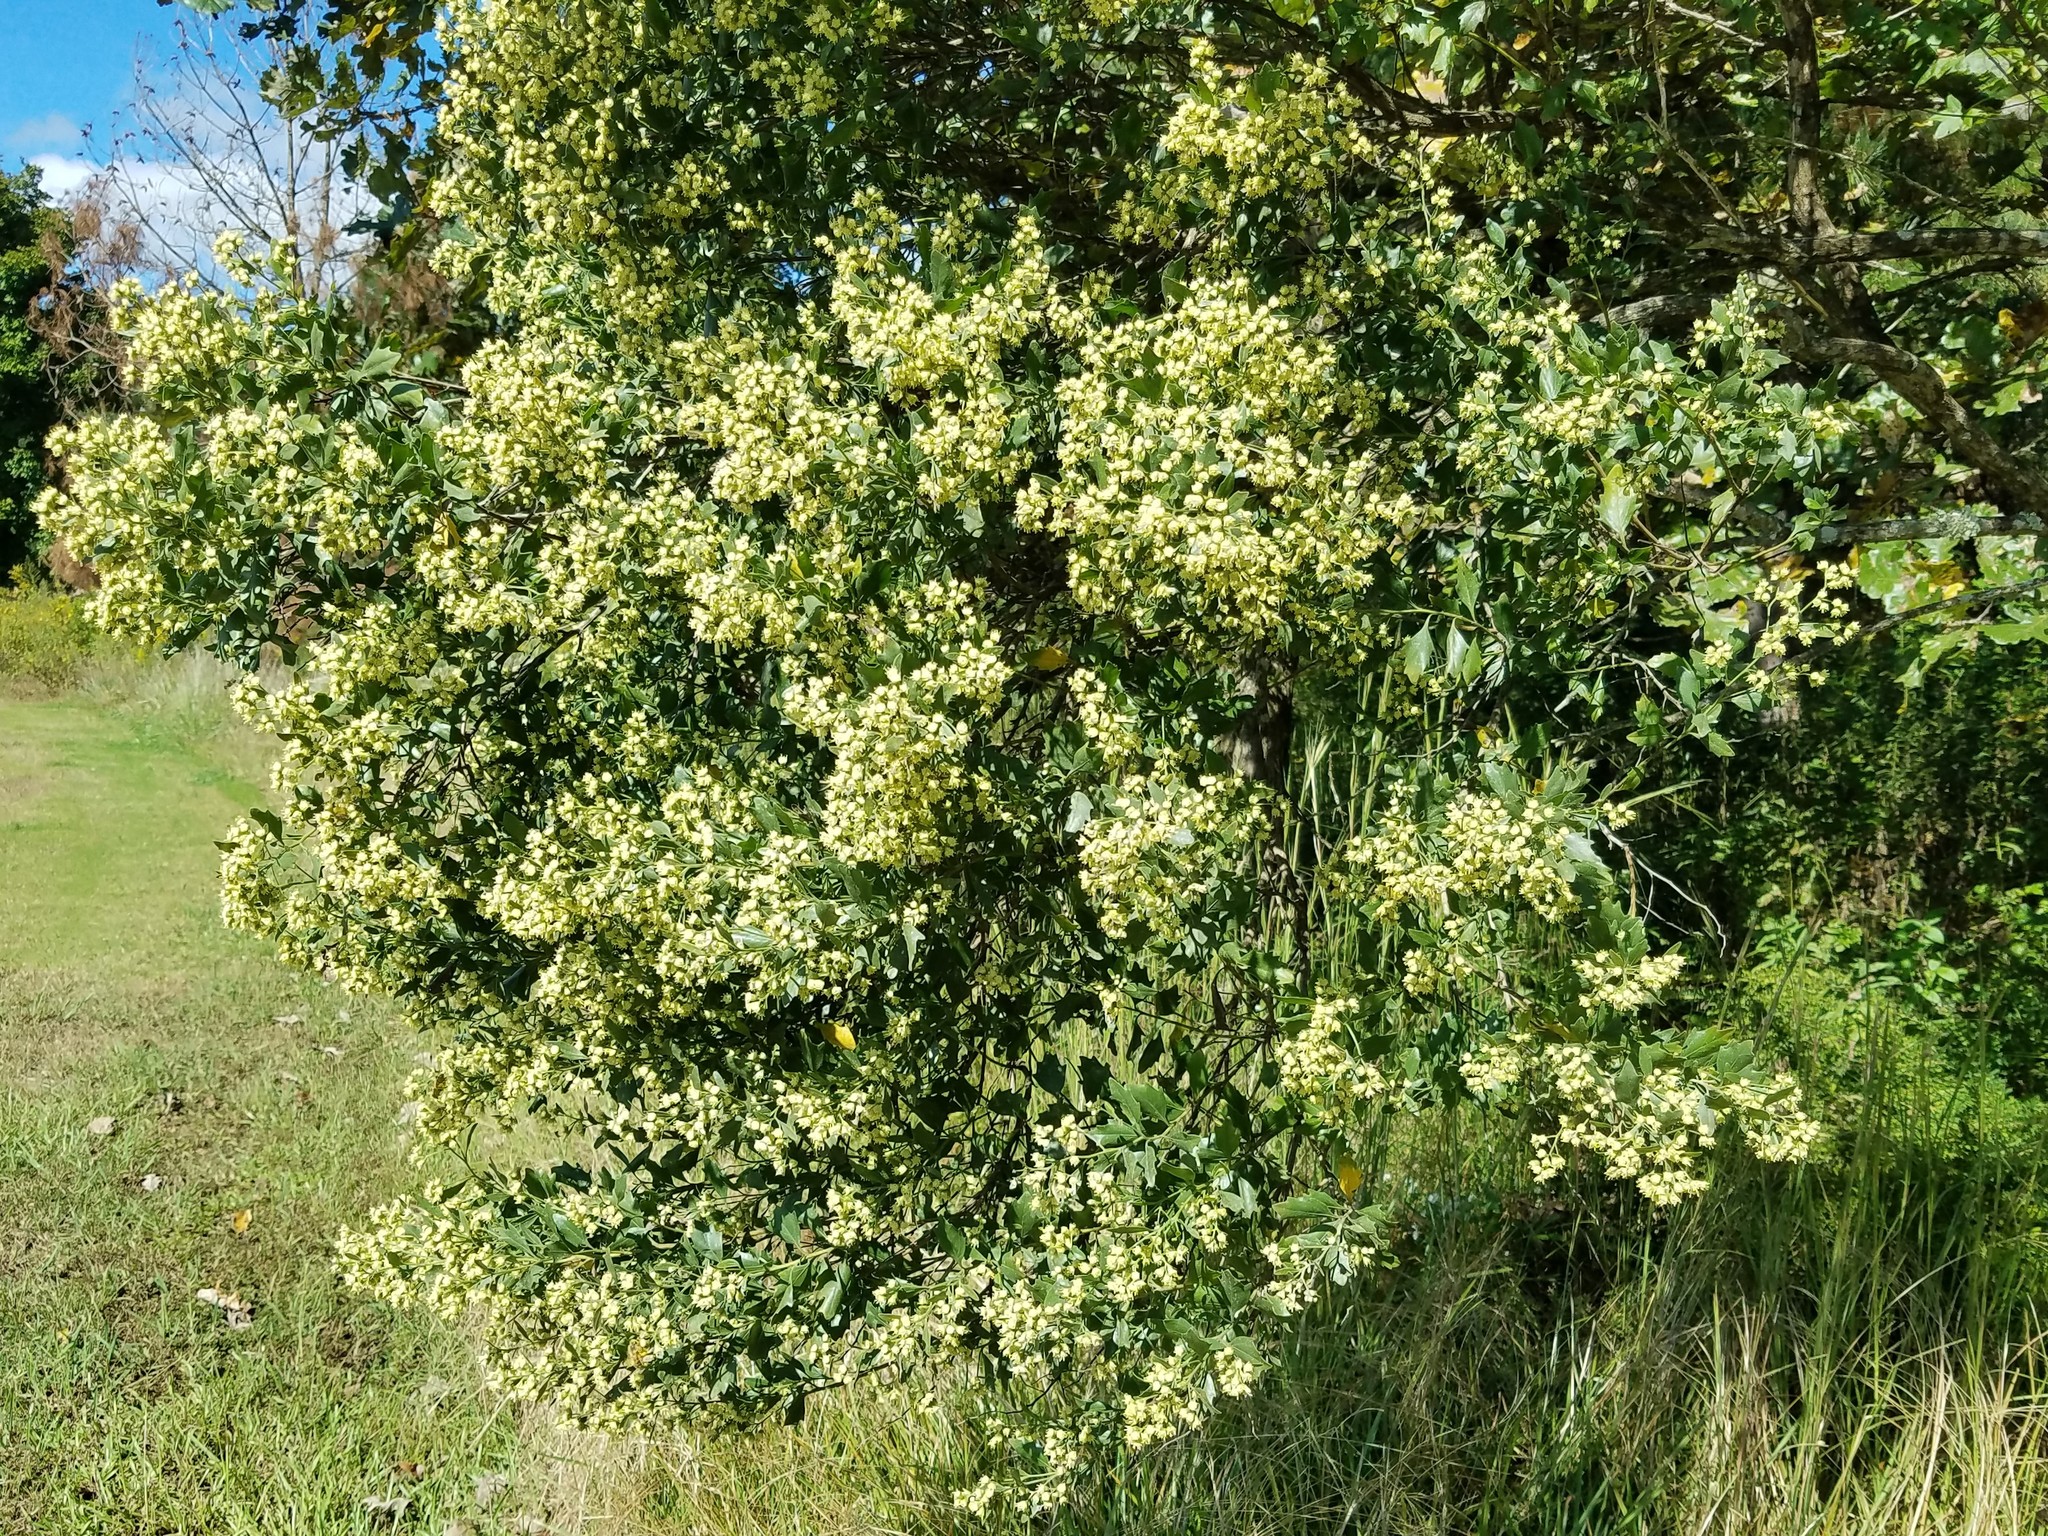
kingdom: Plantae
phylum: Tracheophyta
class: Magnoliopsida
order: Asterales
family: Asteraceae
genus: Baccharis
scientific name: Baccharis halimifolia
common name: Eastern baccharis
